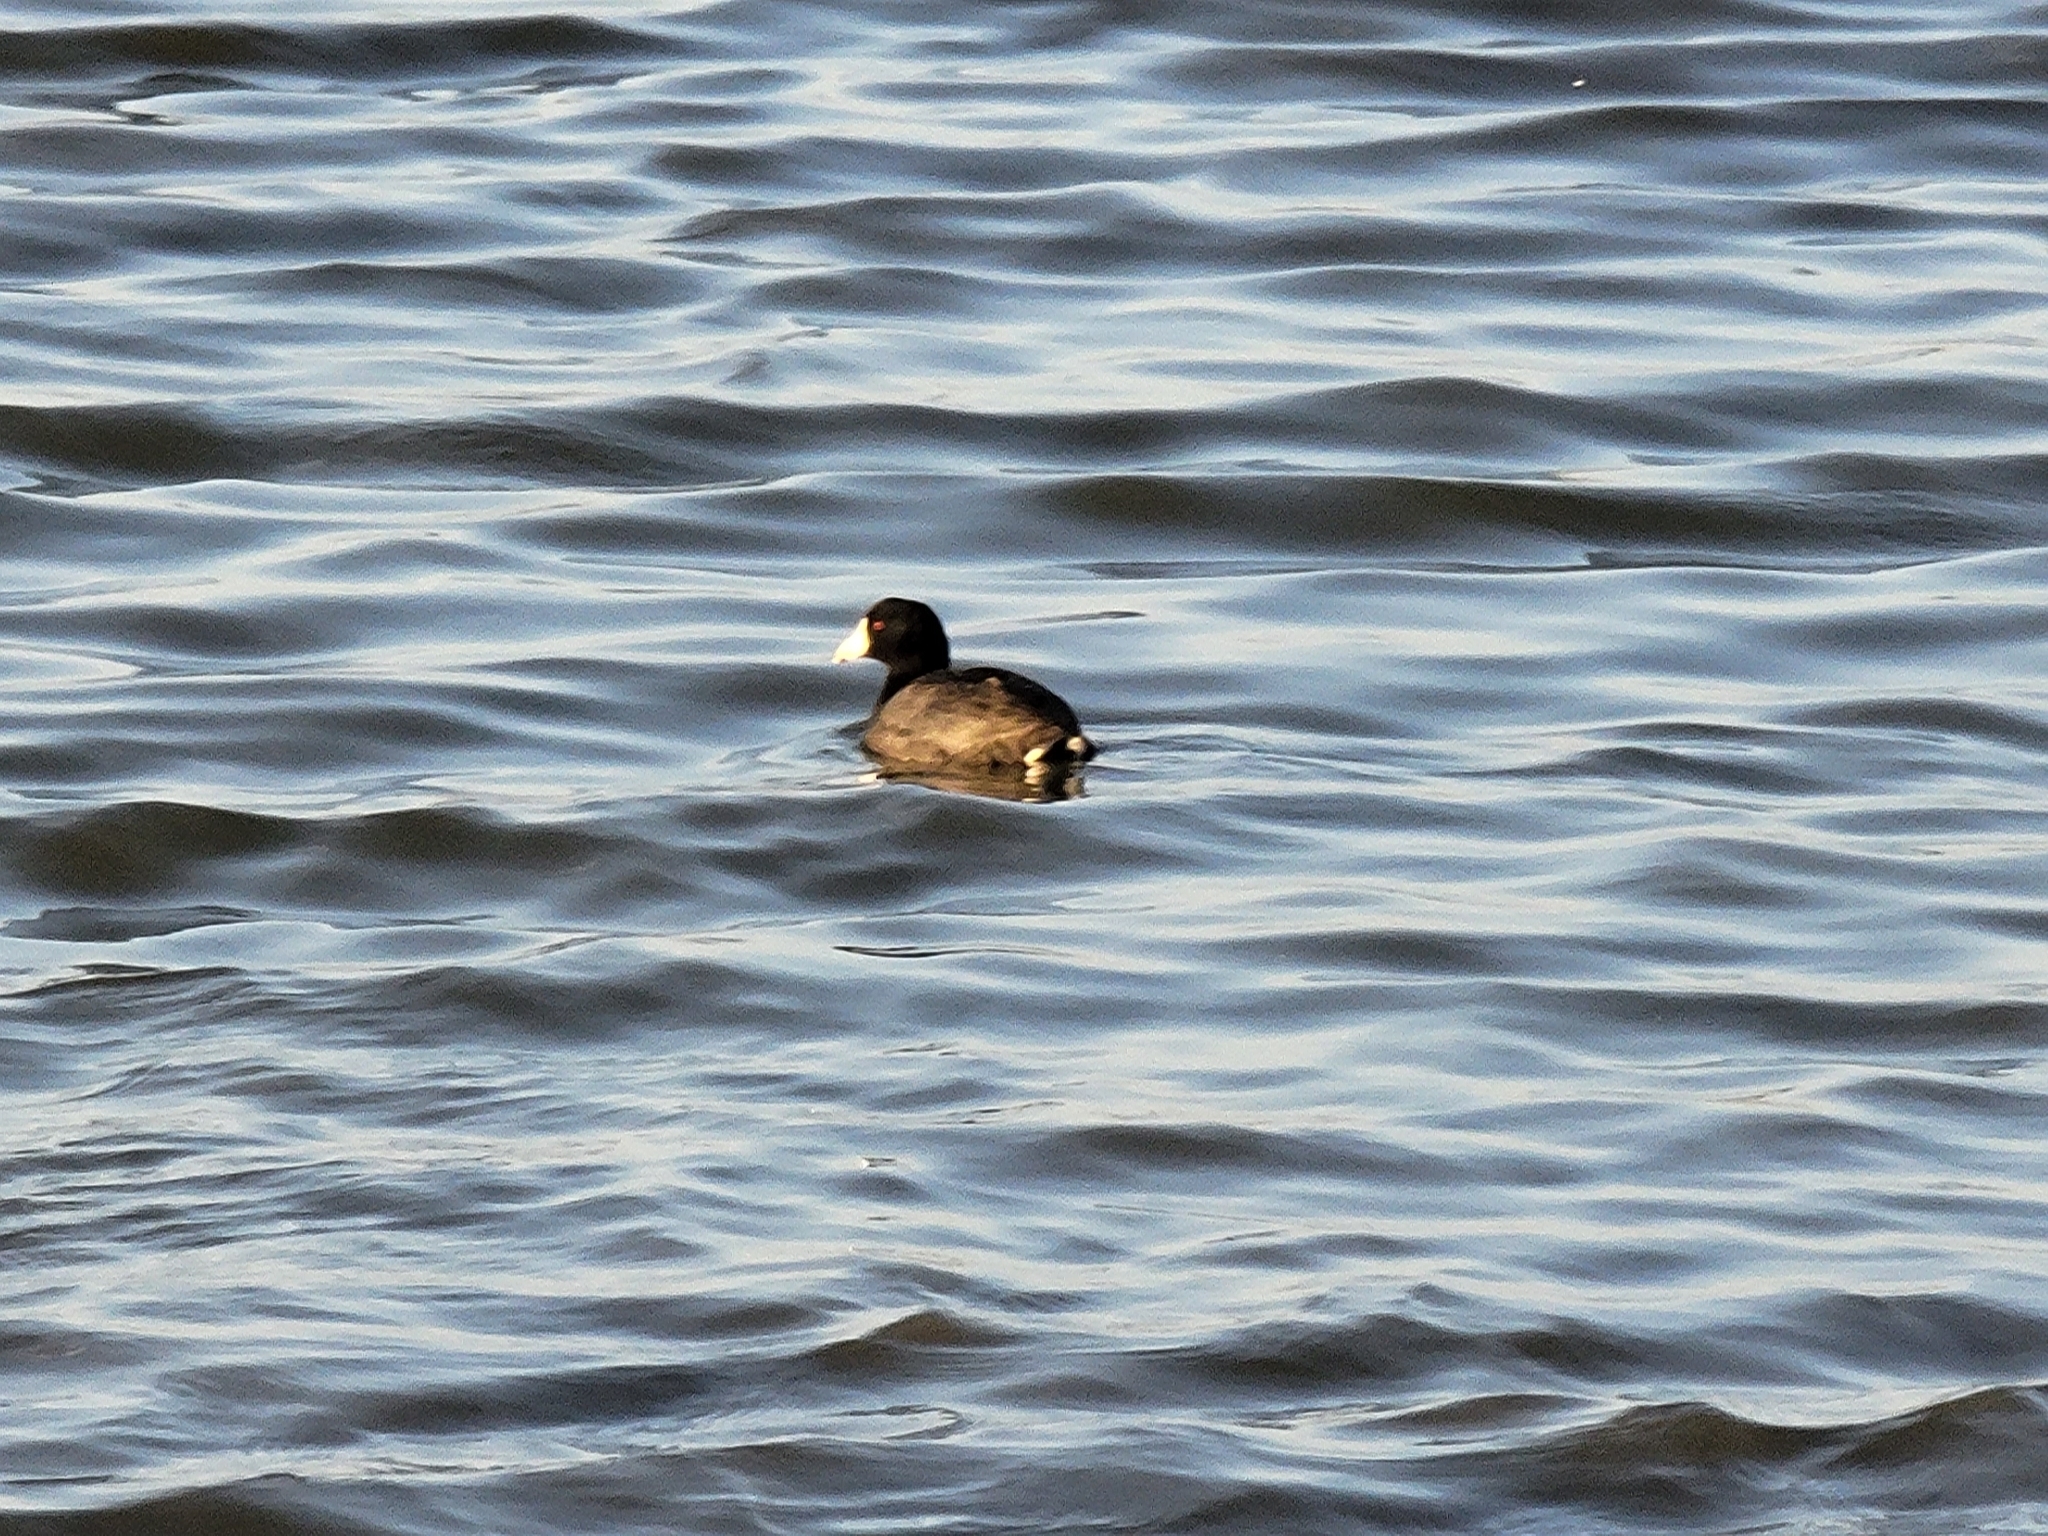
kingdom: Animalia
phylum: Chordata
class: Aves
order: Gruiformes
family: Rallidae
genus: Fulica
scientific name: Fulica americana
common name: American coot
